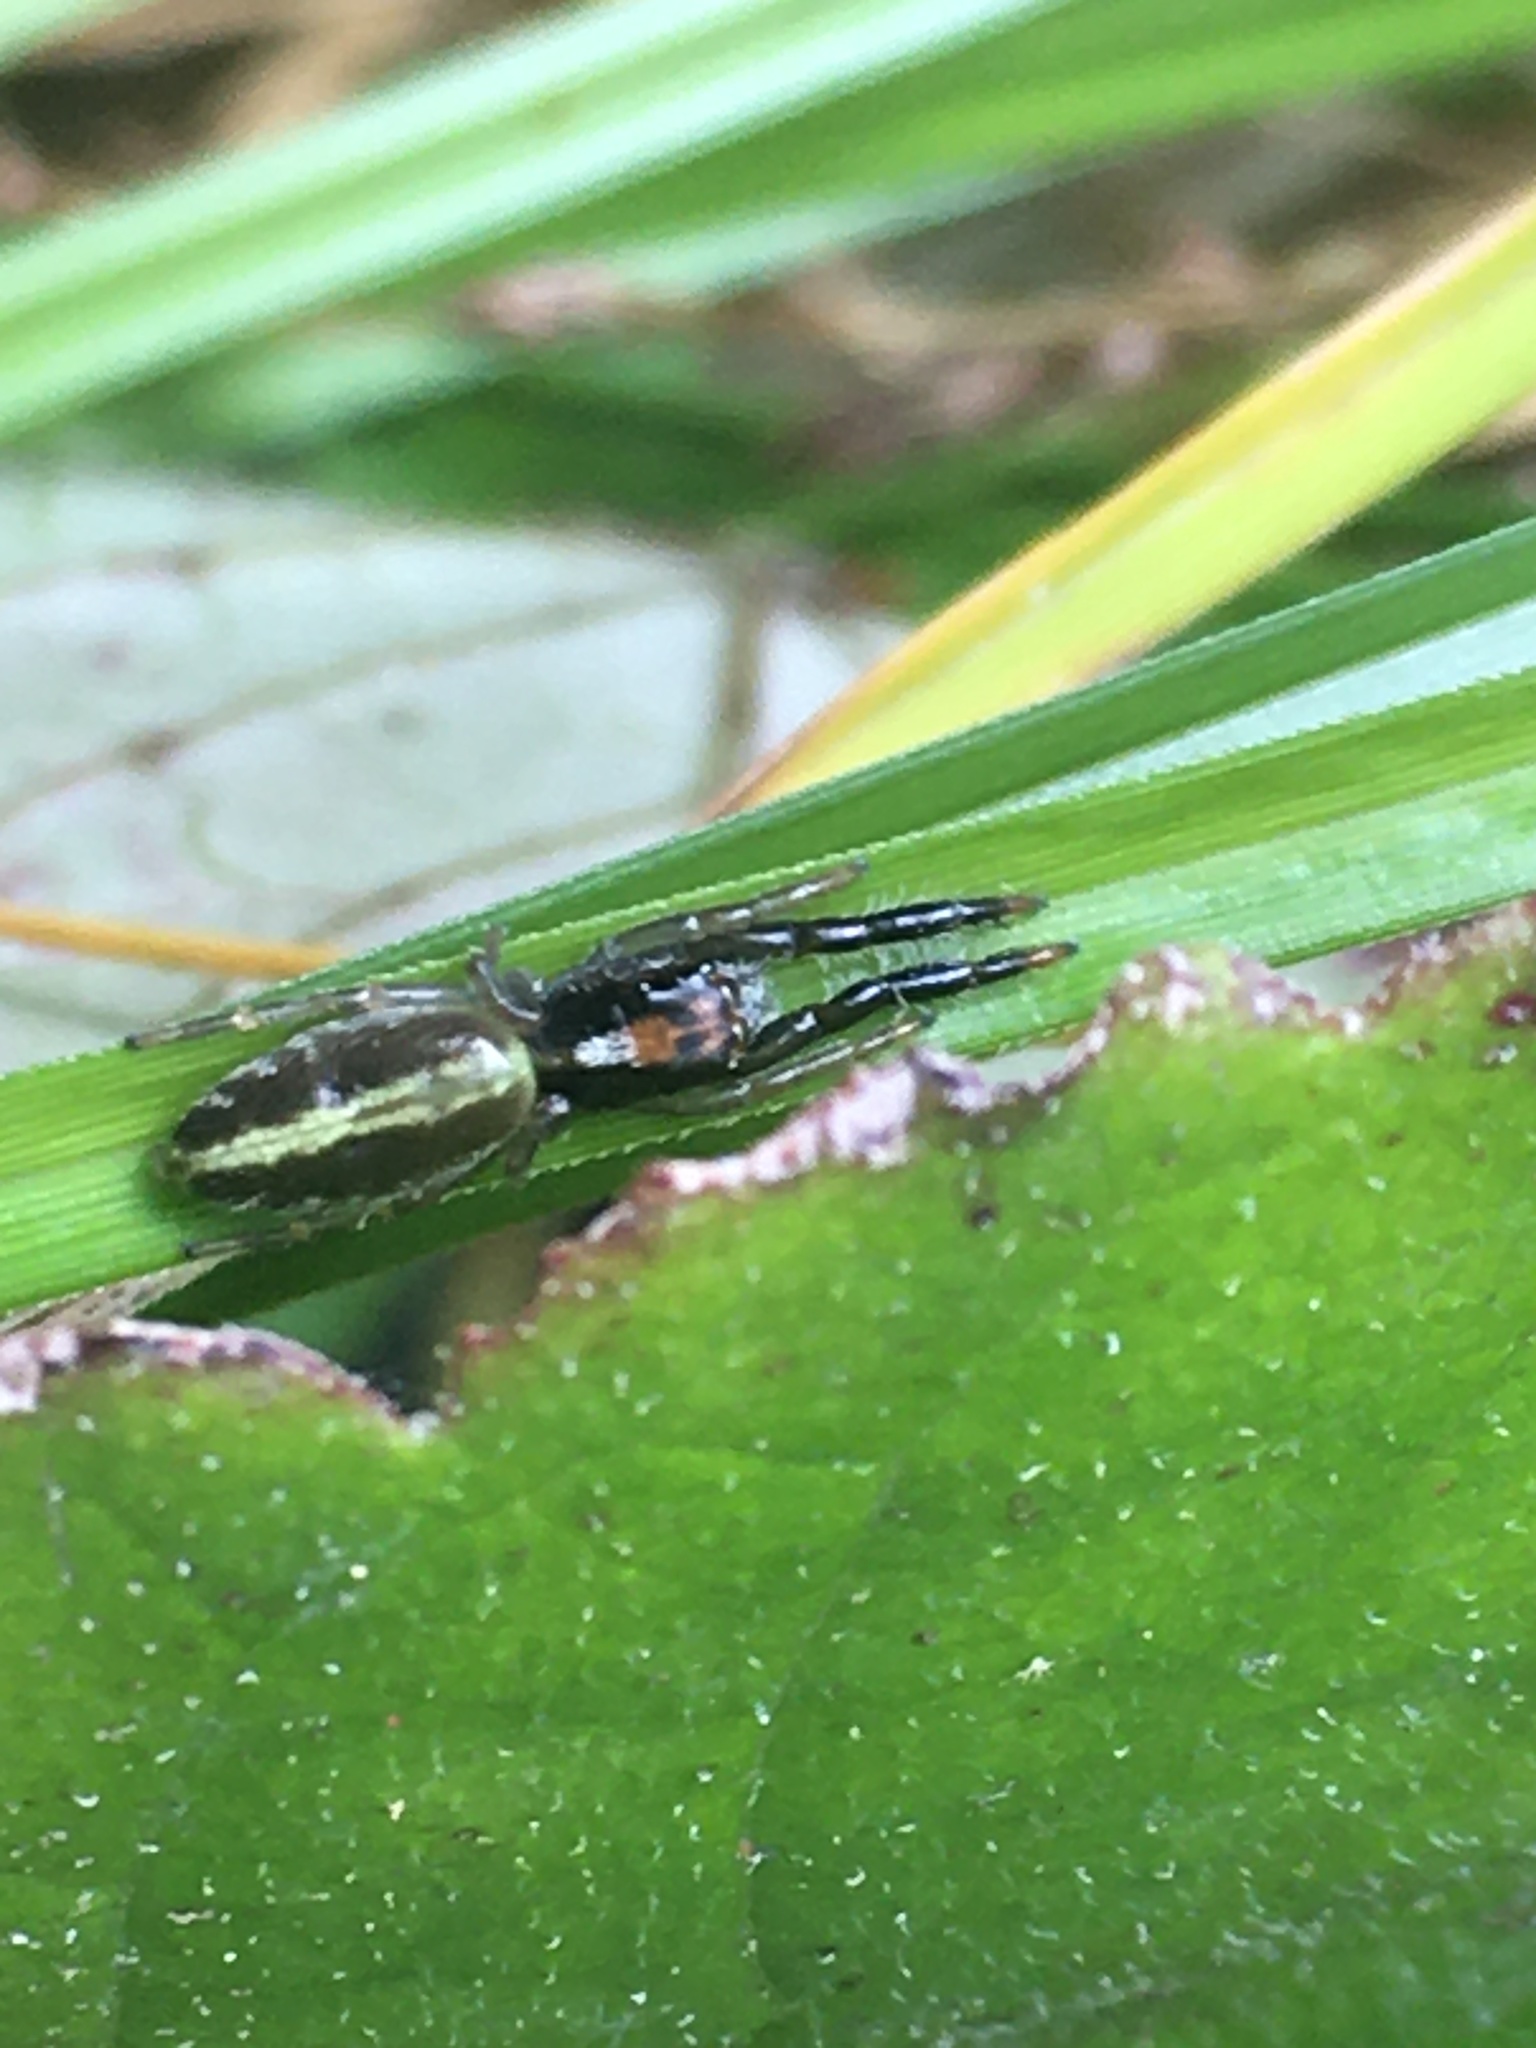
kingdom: Animalia
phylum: Arthropoda
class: Arachnida
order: Araneae
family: Salticidae
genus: Trite
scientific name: Trite planiceps
